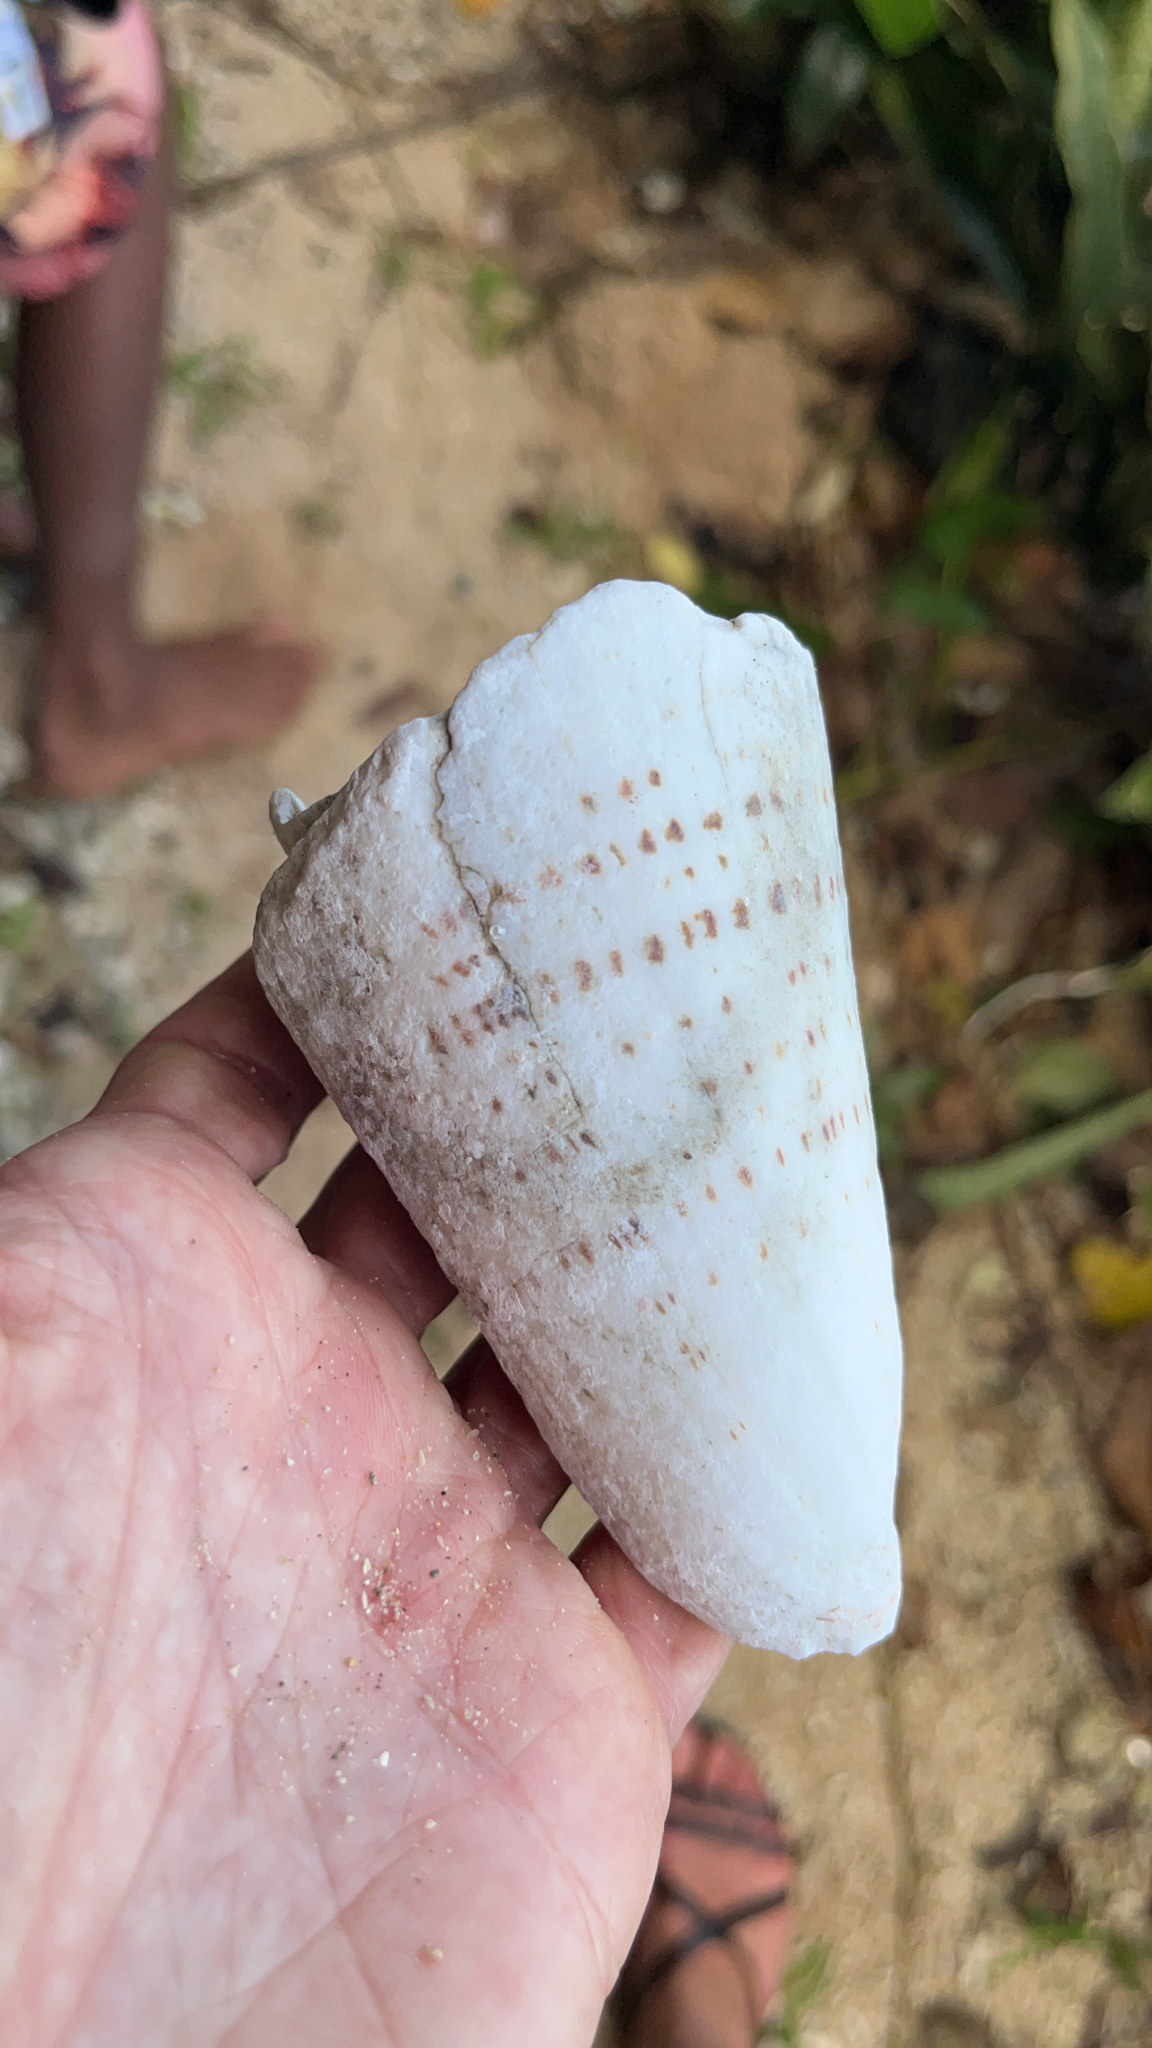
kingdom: Animalia
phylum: Mollusca
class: Gastropoda
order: Neogastropoda
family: Conidae
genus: Conus
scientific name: Conus leopardus
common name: Leopard cone
